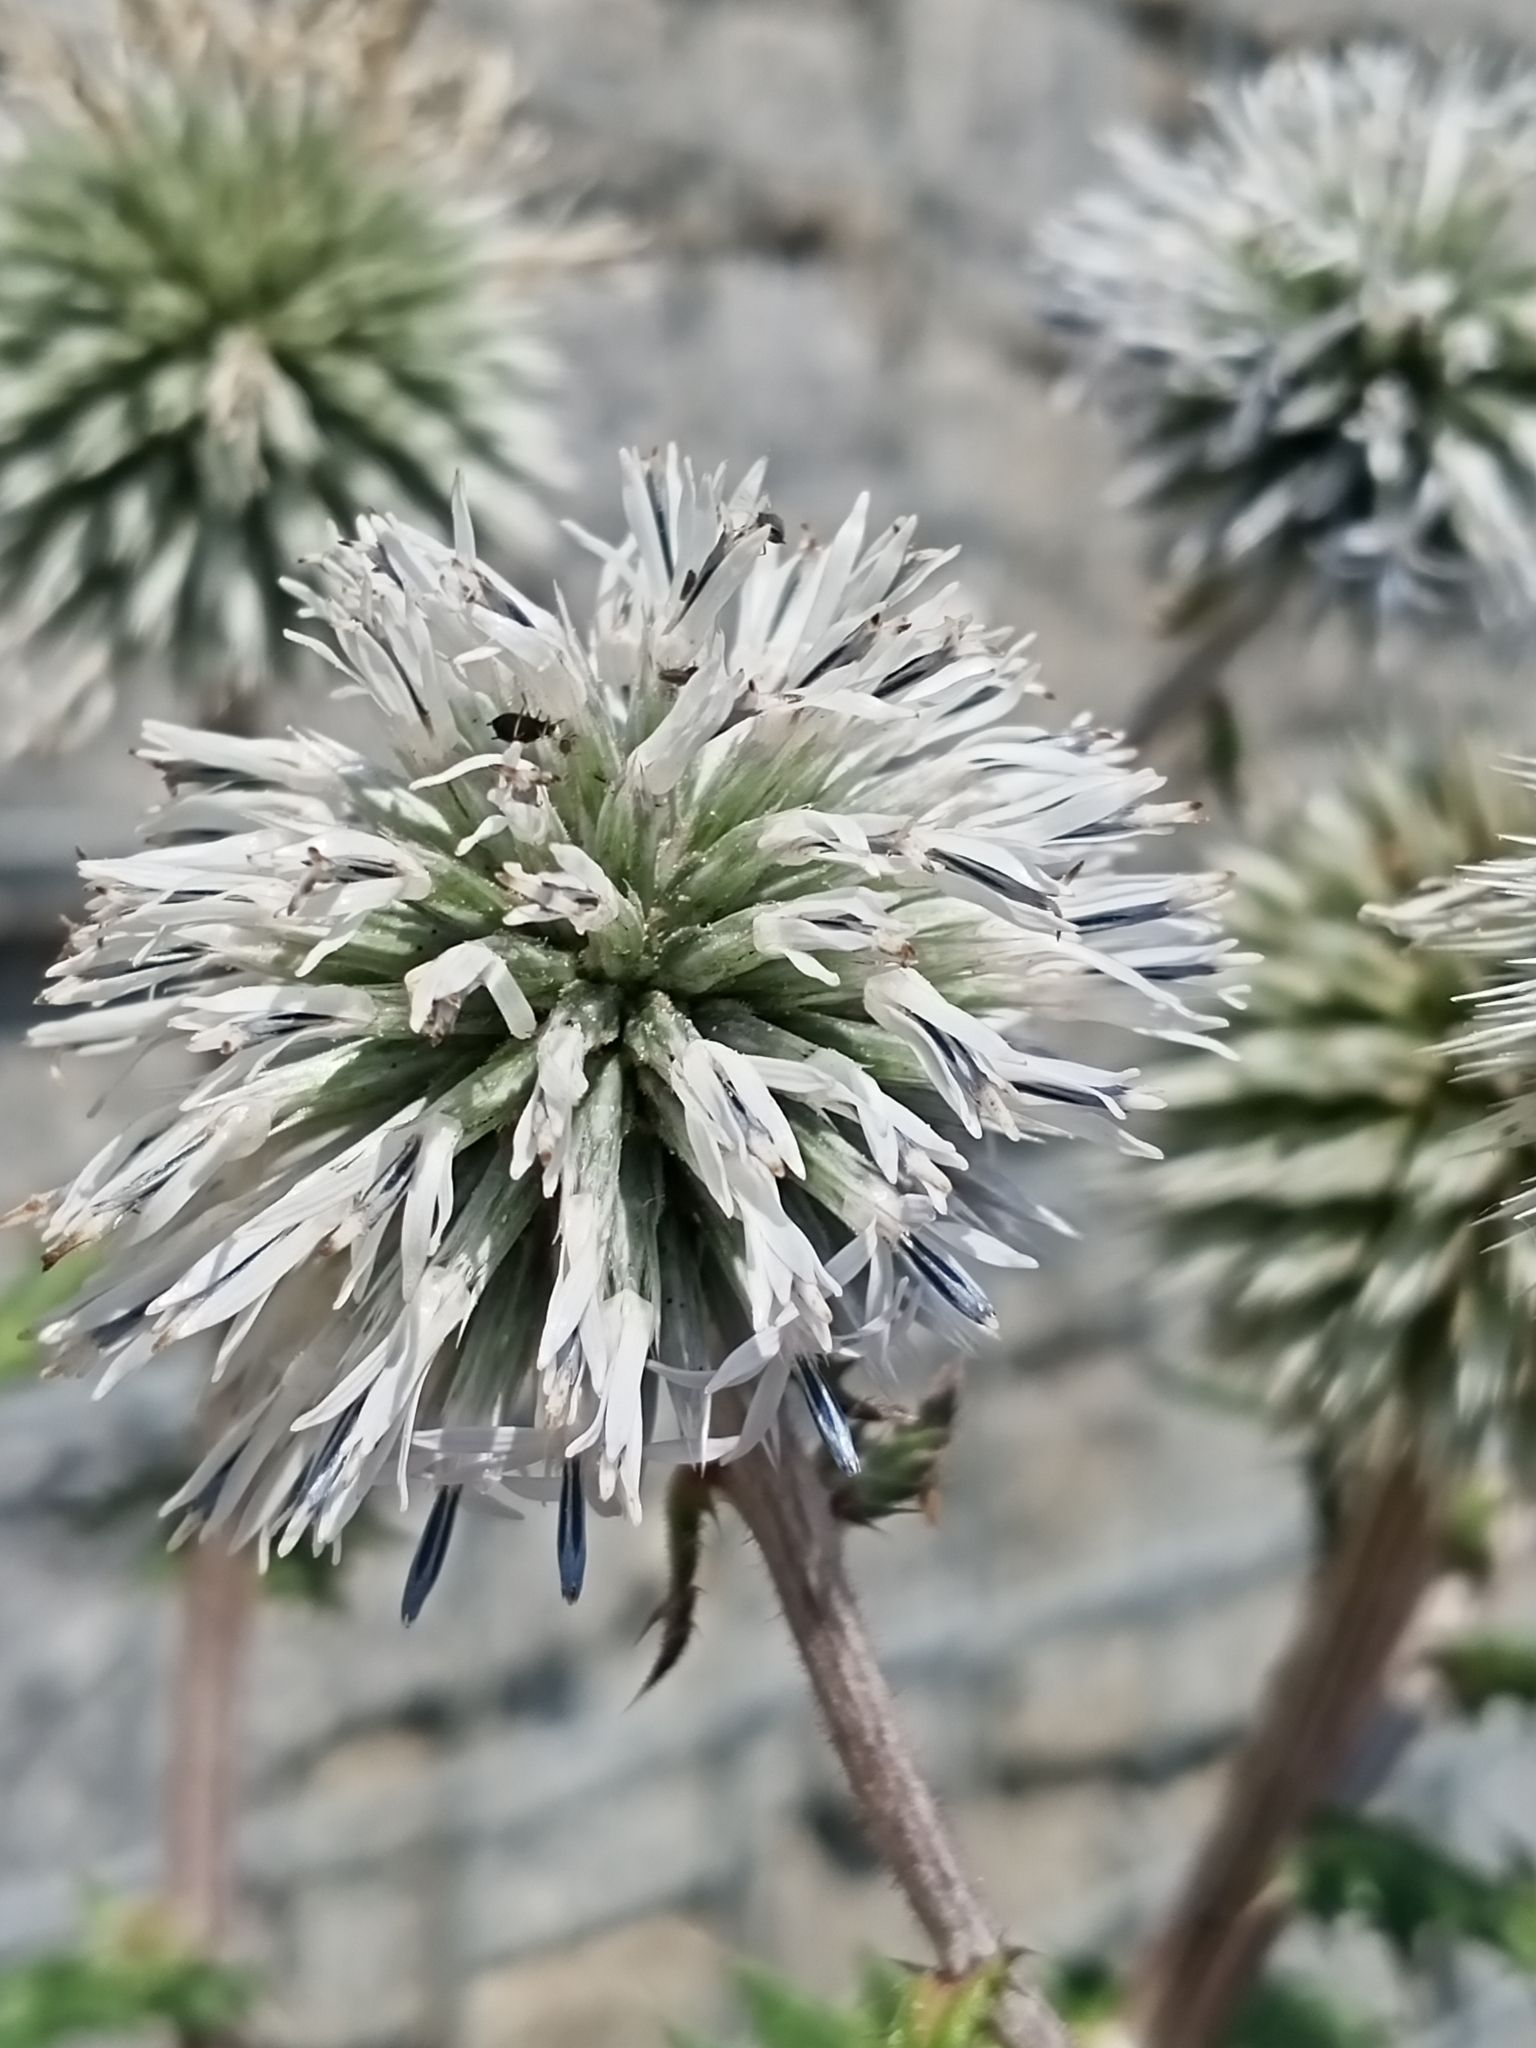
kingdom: Plantae
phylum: Tracheophyta
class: Magnoliopsida
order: Asterales
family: Asteraceae
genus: Echinops
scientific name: Echinops sphaerocephalus
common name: Glandular globe-thistle
